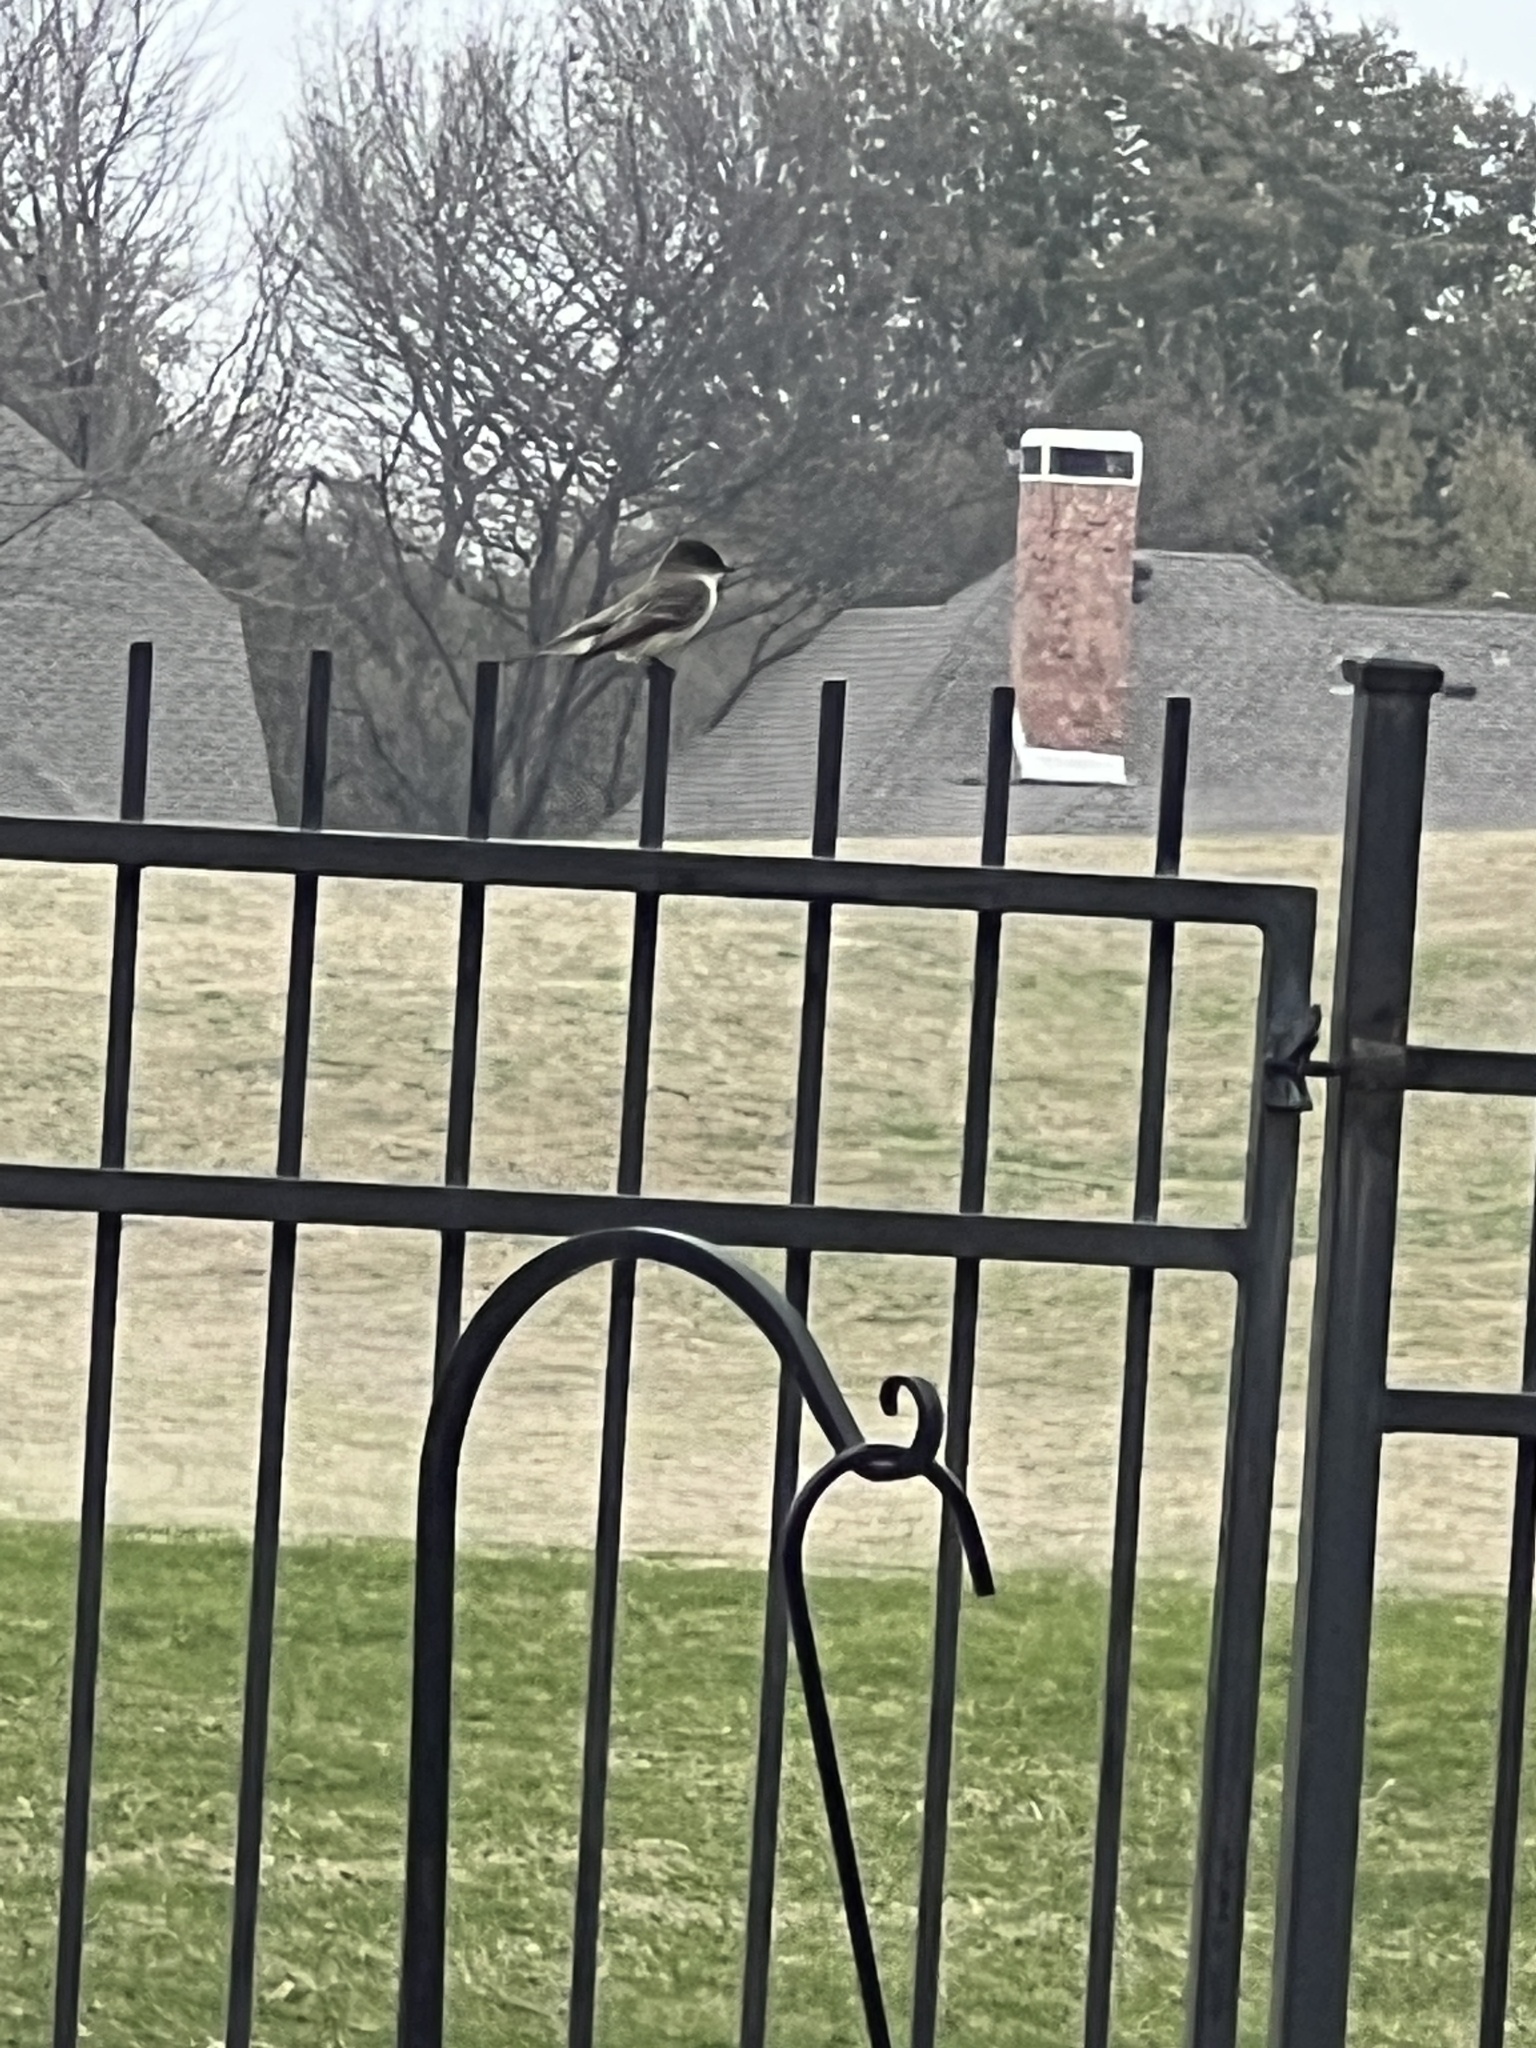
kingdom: Animalia
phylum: Chordata
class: Aves
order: Passeriformes
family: Tyrannidae
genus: Sayornis
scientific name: Sayornis phoebe
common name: Eastern phoebe
